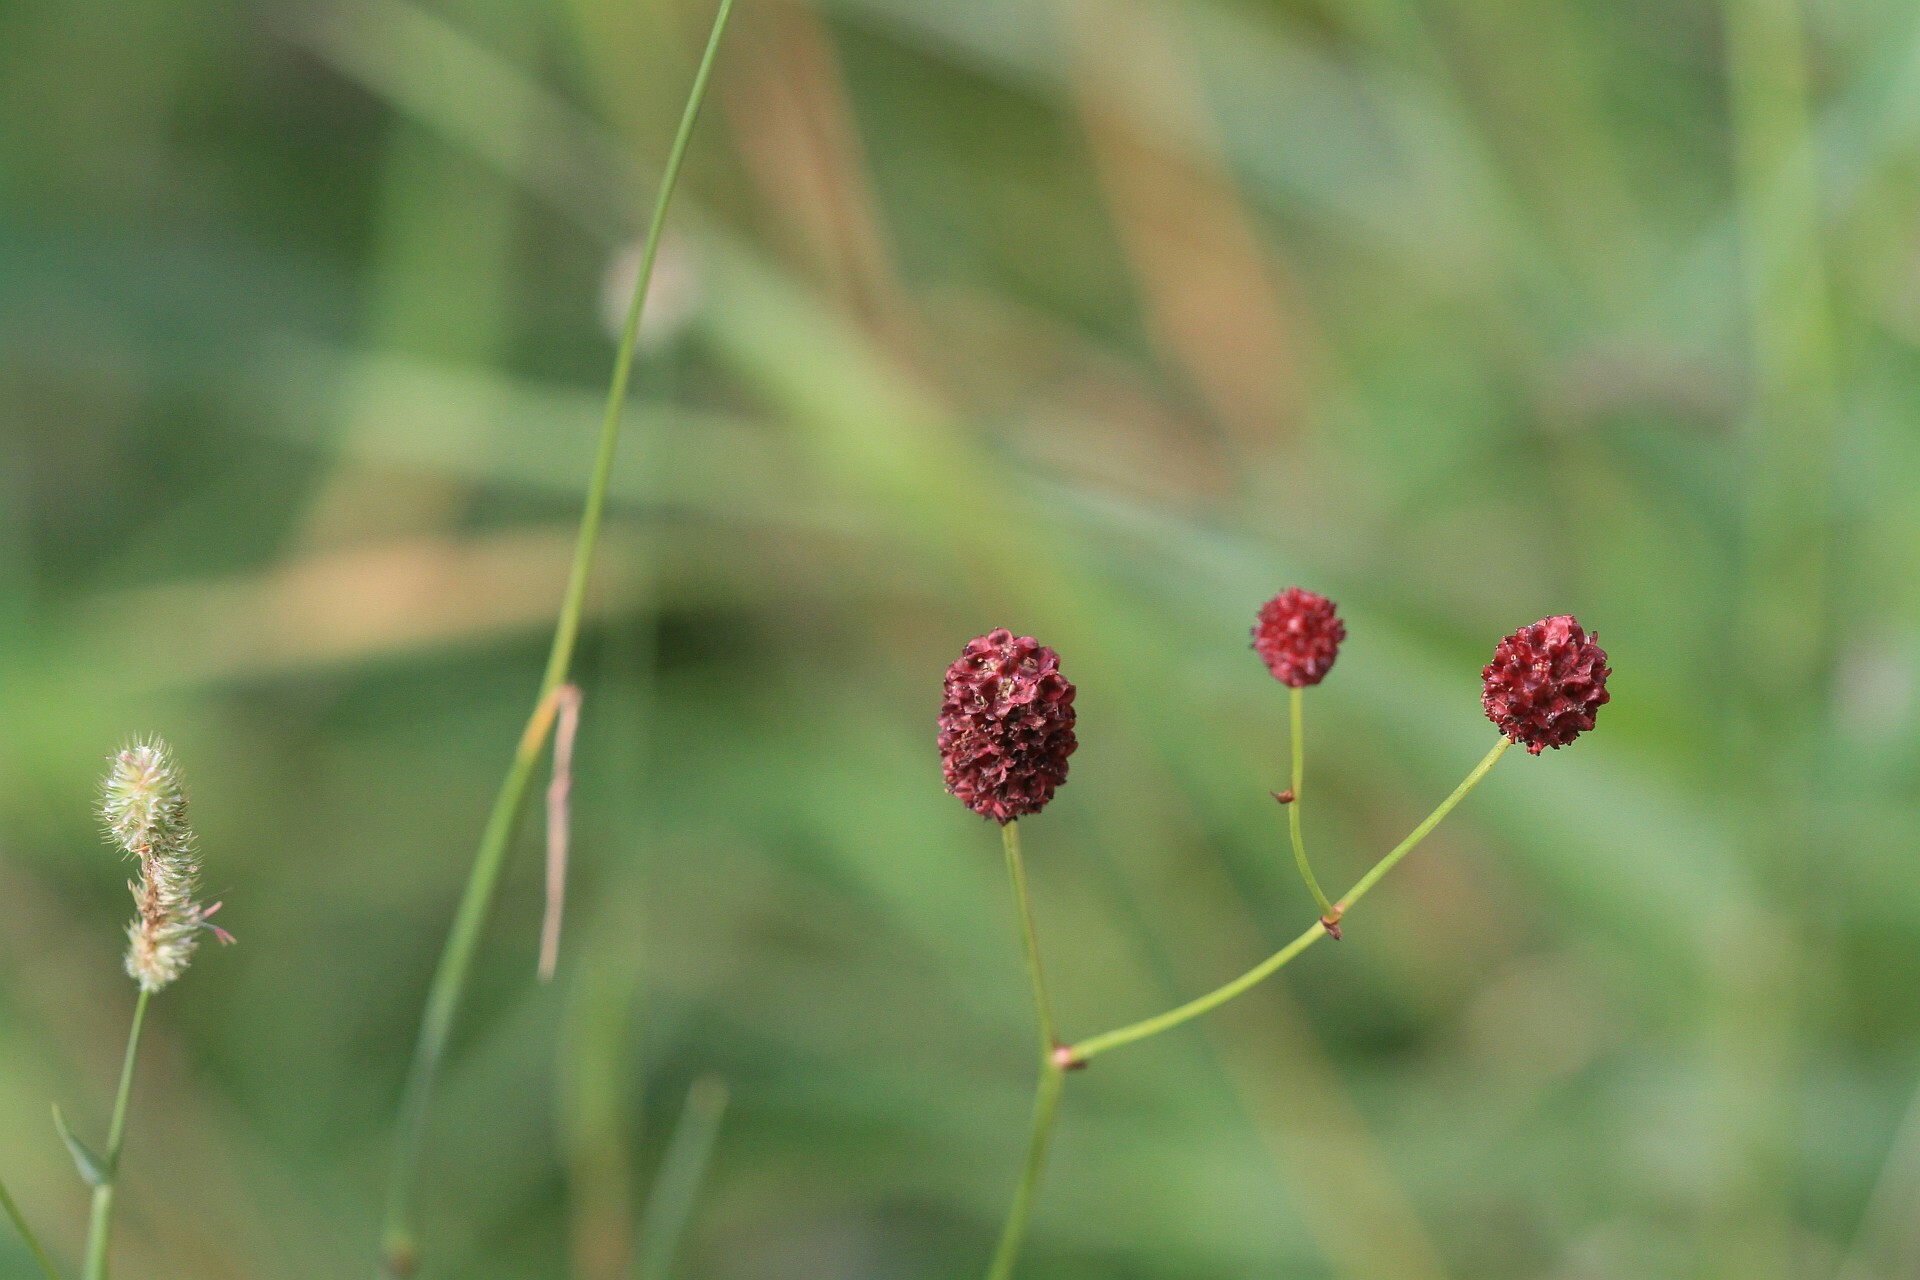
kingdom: Plantae
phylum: Tracheophyta
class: Magnoliopsida
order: Rosales
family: Rosaceae
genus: Sanguisorba
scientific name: Sanguisorba officinalis
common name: Great burnet
